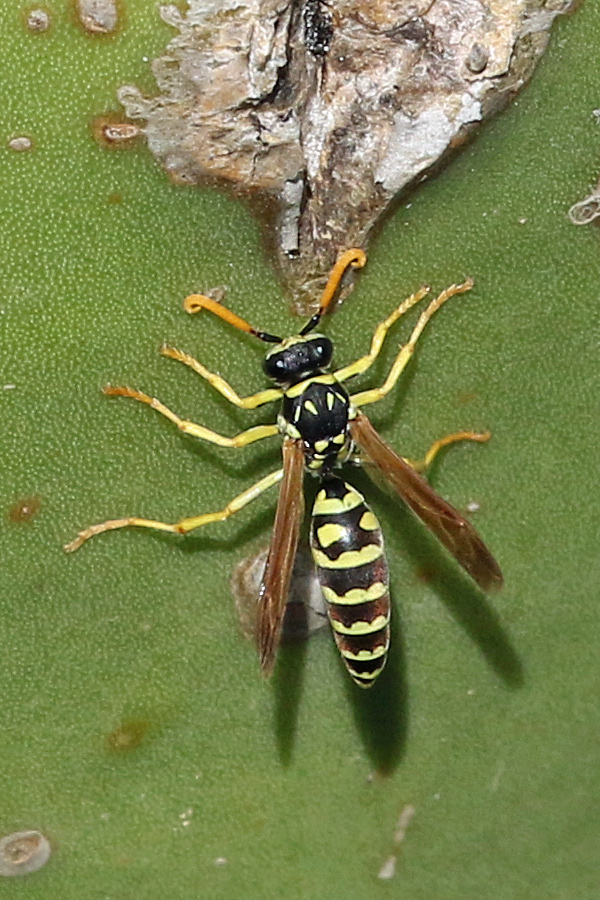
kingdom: Animalia
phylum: Arthropoda
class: Insecta
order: Hymenoptera
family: Eumenidae
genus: Polistes
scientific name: Polistes nimpha
